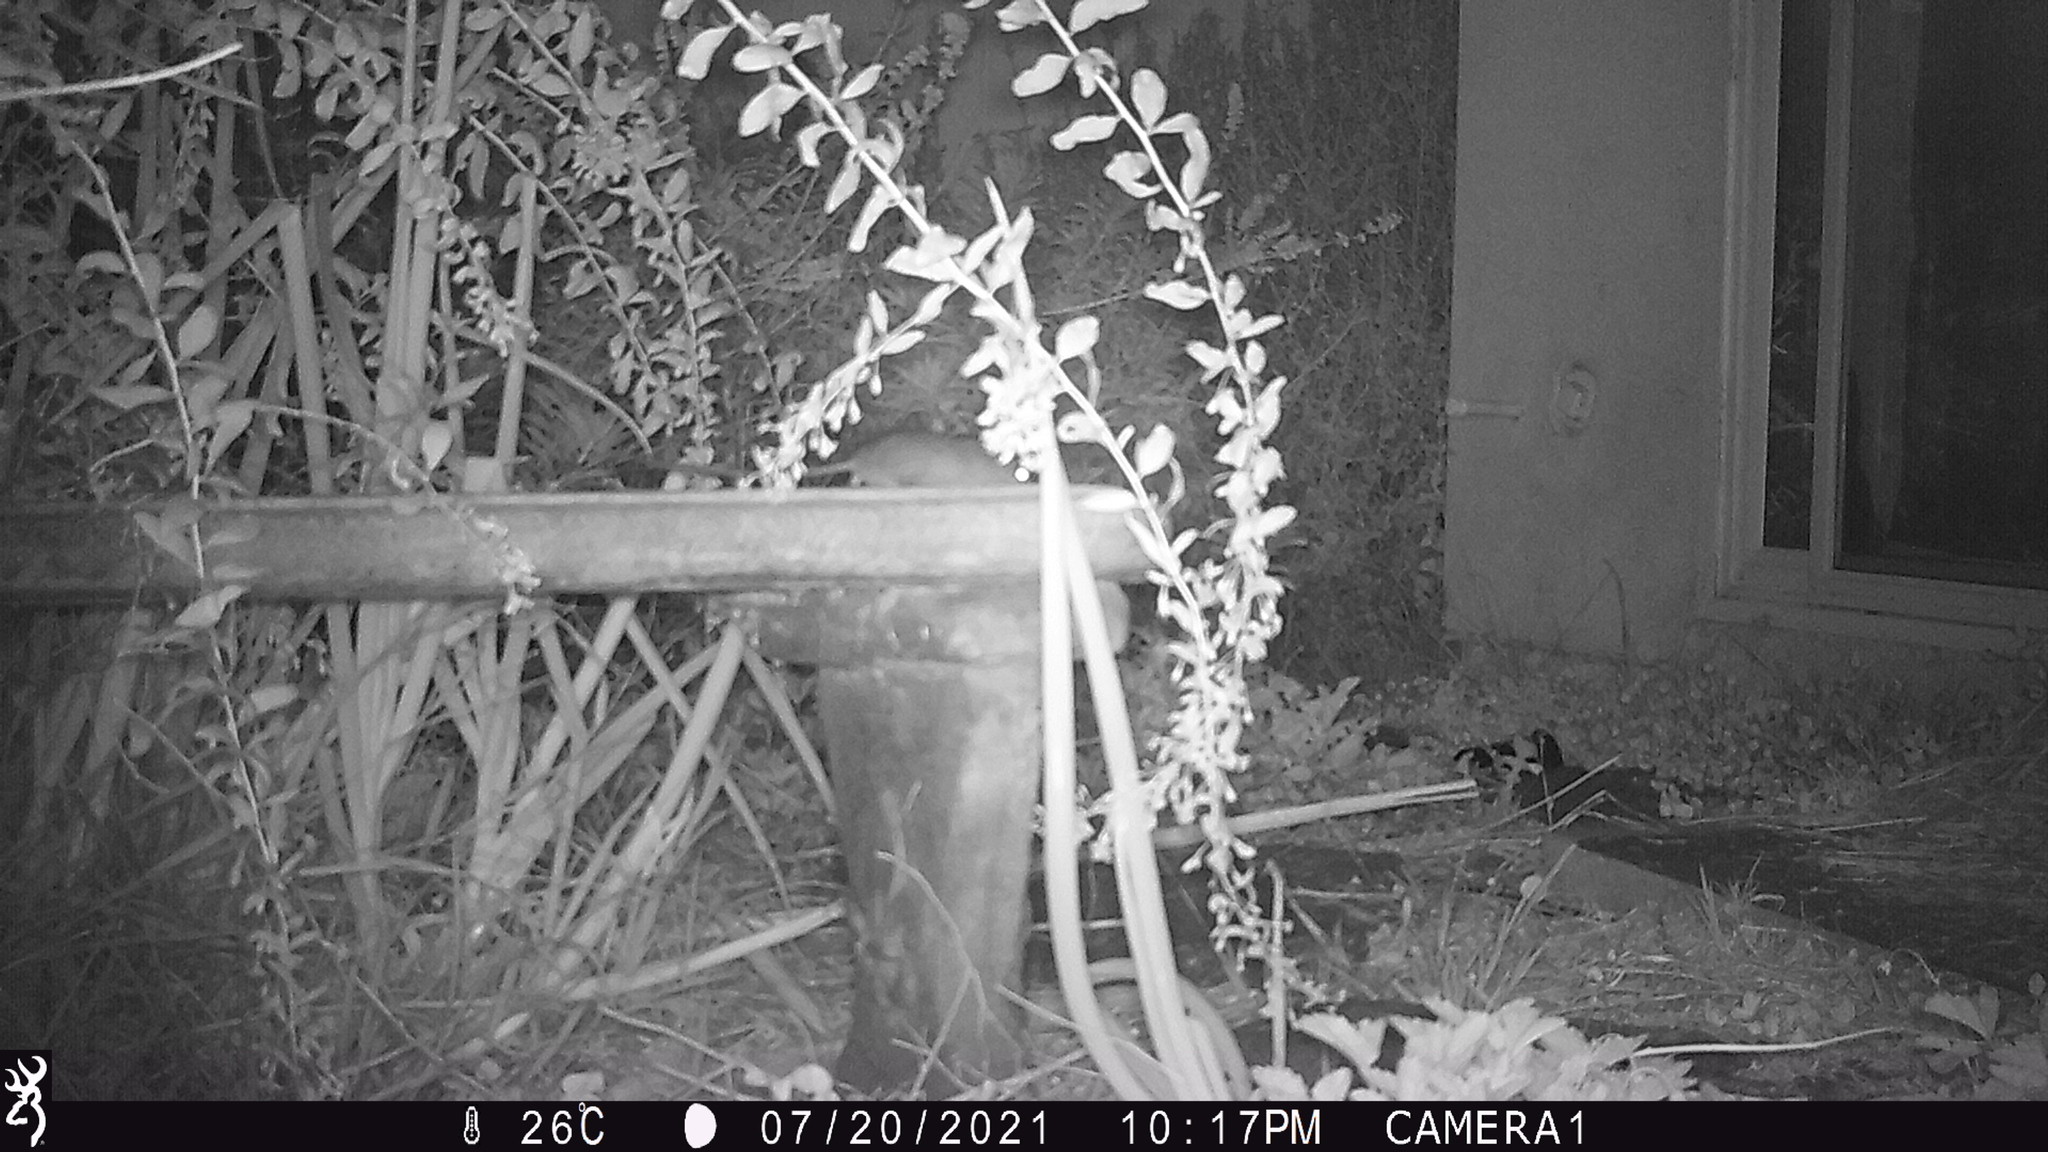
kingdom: Animalia
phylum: Chordata
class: Mammalia
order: Rodentia
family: Muridae
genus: Rattus
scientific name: Rattus rattus
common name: Black rat
